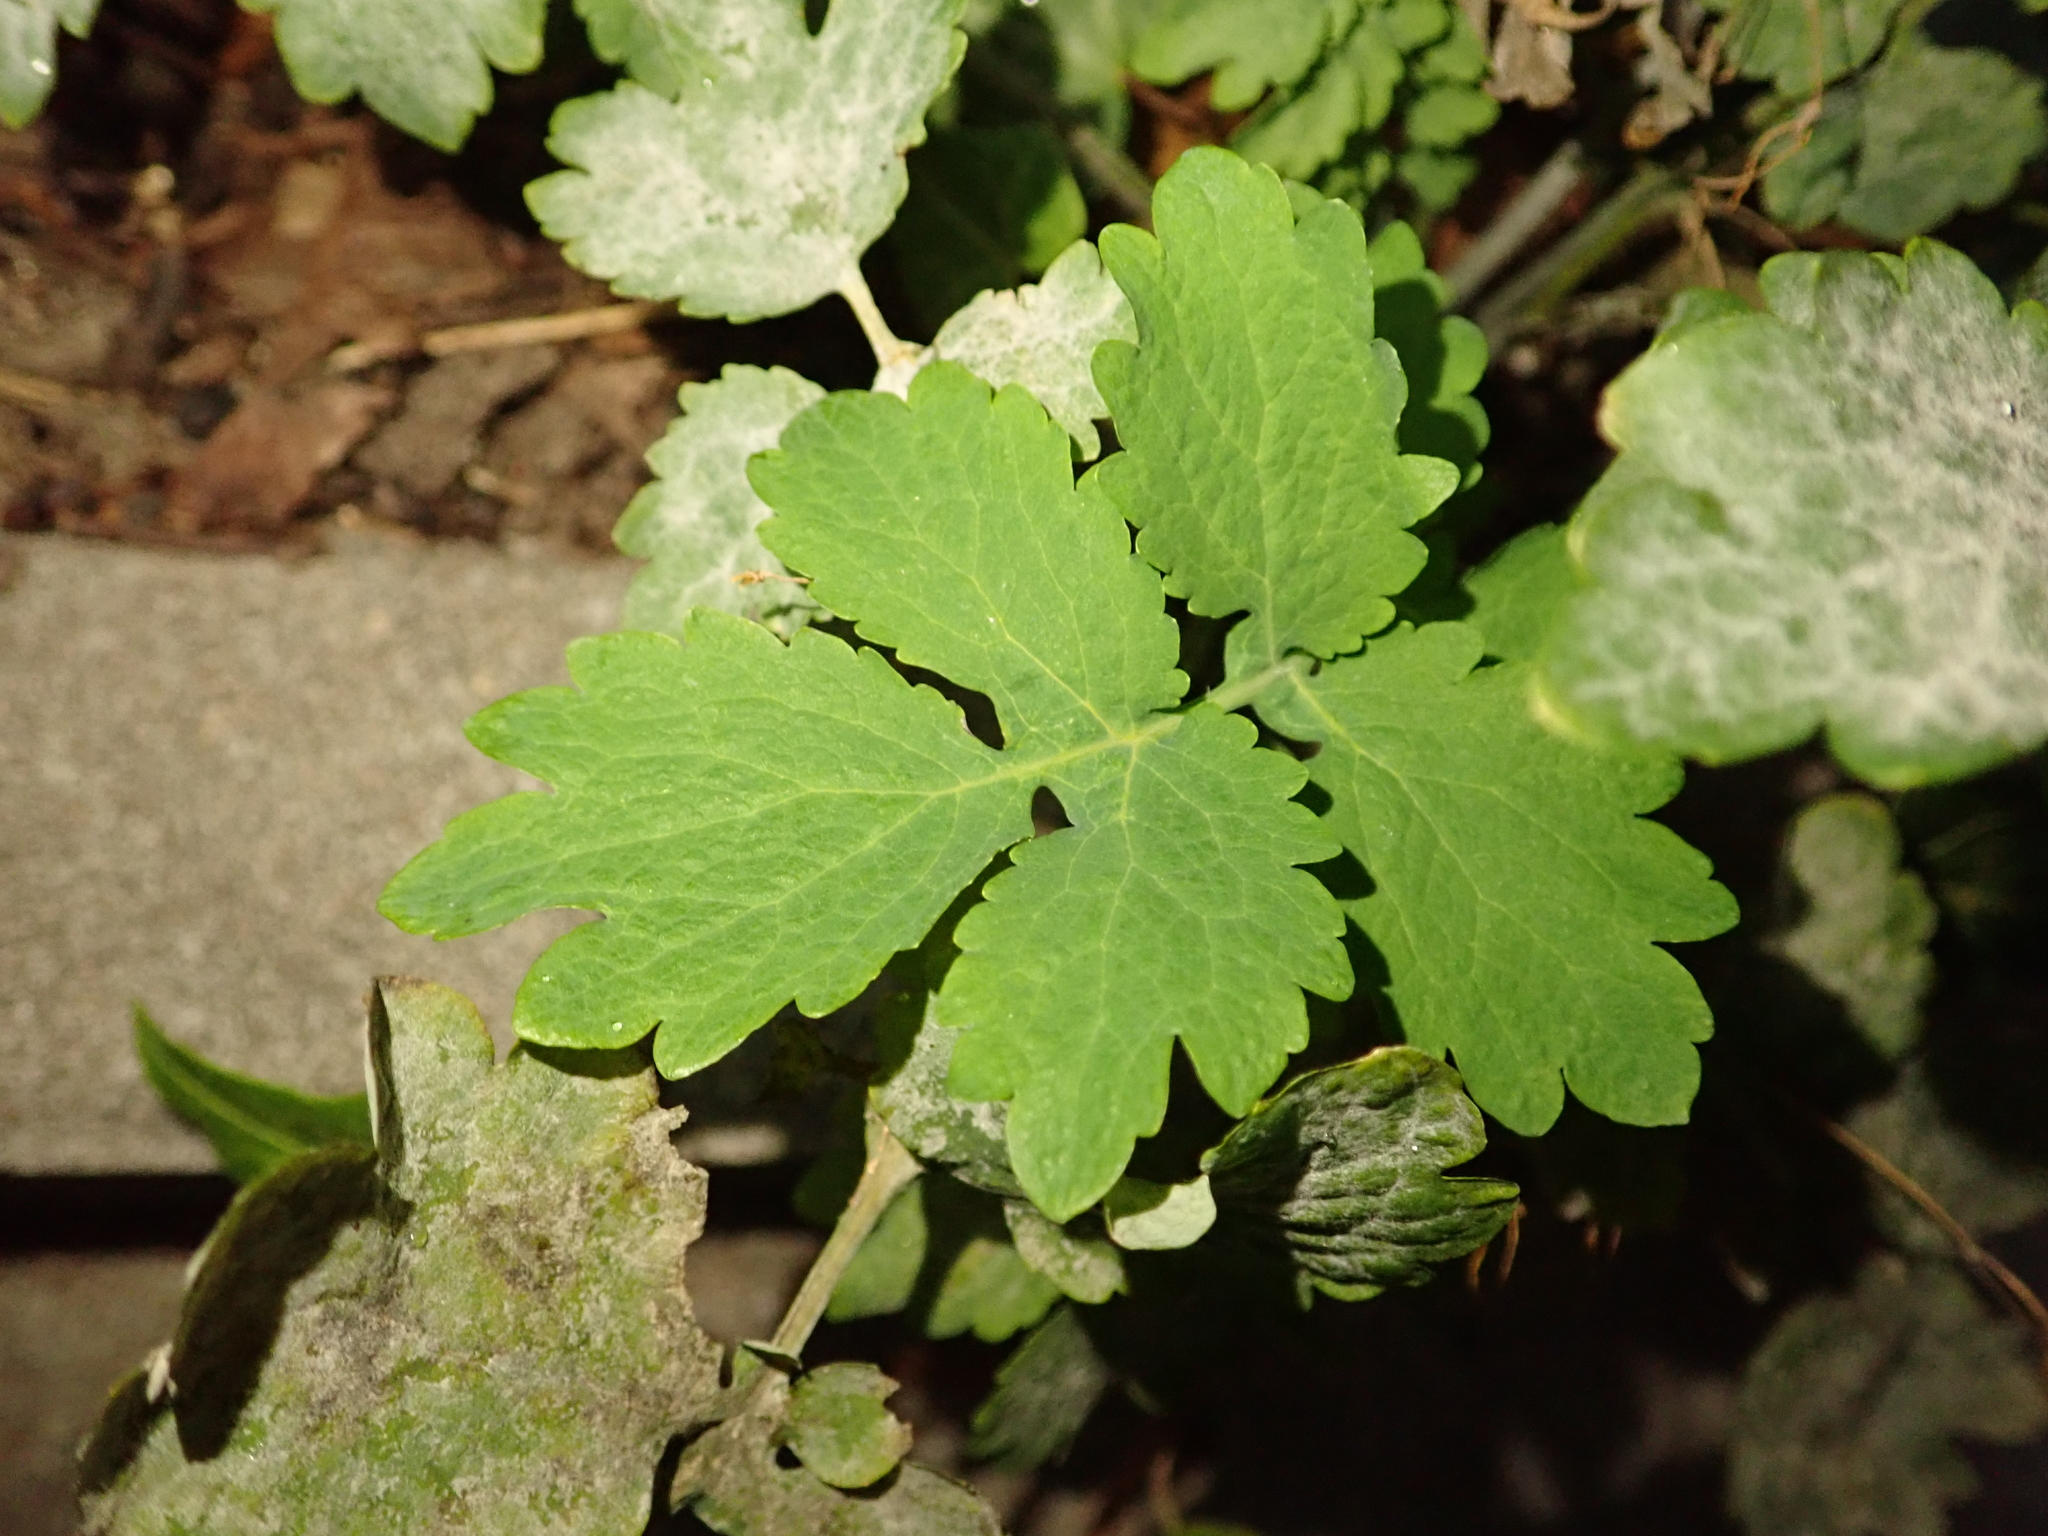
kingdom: Plantae
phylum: Tracheophyta
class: Magnoliopsida
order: Ranunculales
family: Papaveraceae
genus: Chelidonium
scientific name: Chelidonium majus
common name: Greater celandine
